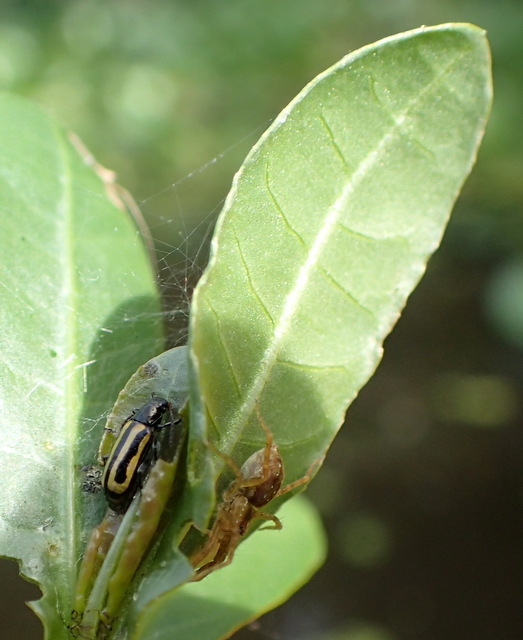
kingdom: Animalia
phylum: Arthropoda
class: Insecta
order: Coleoptera
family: Chrysomelidae
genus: Agasicles
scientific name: Agasicles hygrophila
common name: Alligatorweed flea beetle
